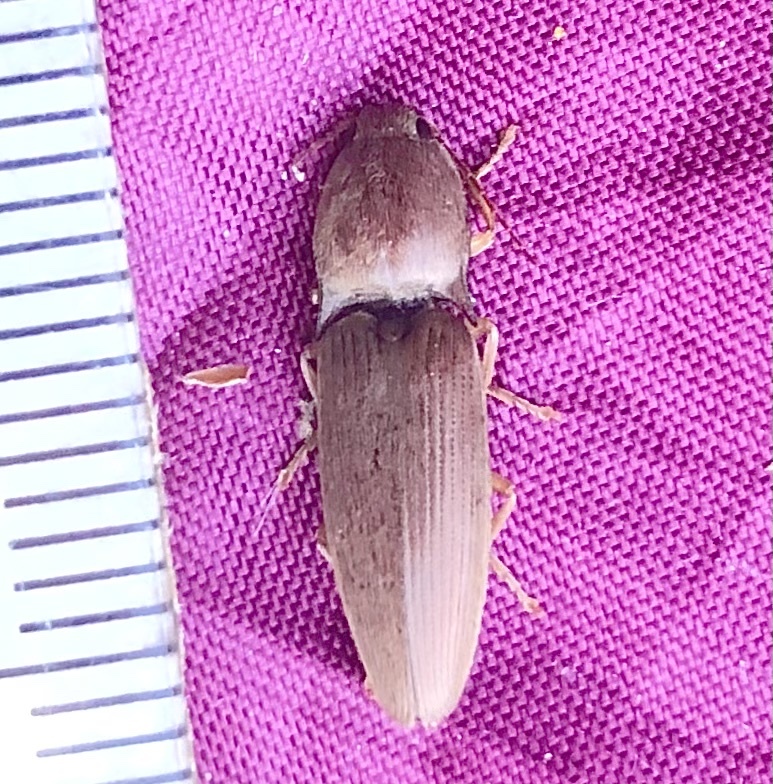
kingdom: Animalia
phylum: Arthropoda
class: Insecta
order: Coleoptera
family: Elateridae
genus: Monocrepidius
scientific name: Monocrepidius lividus
